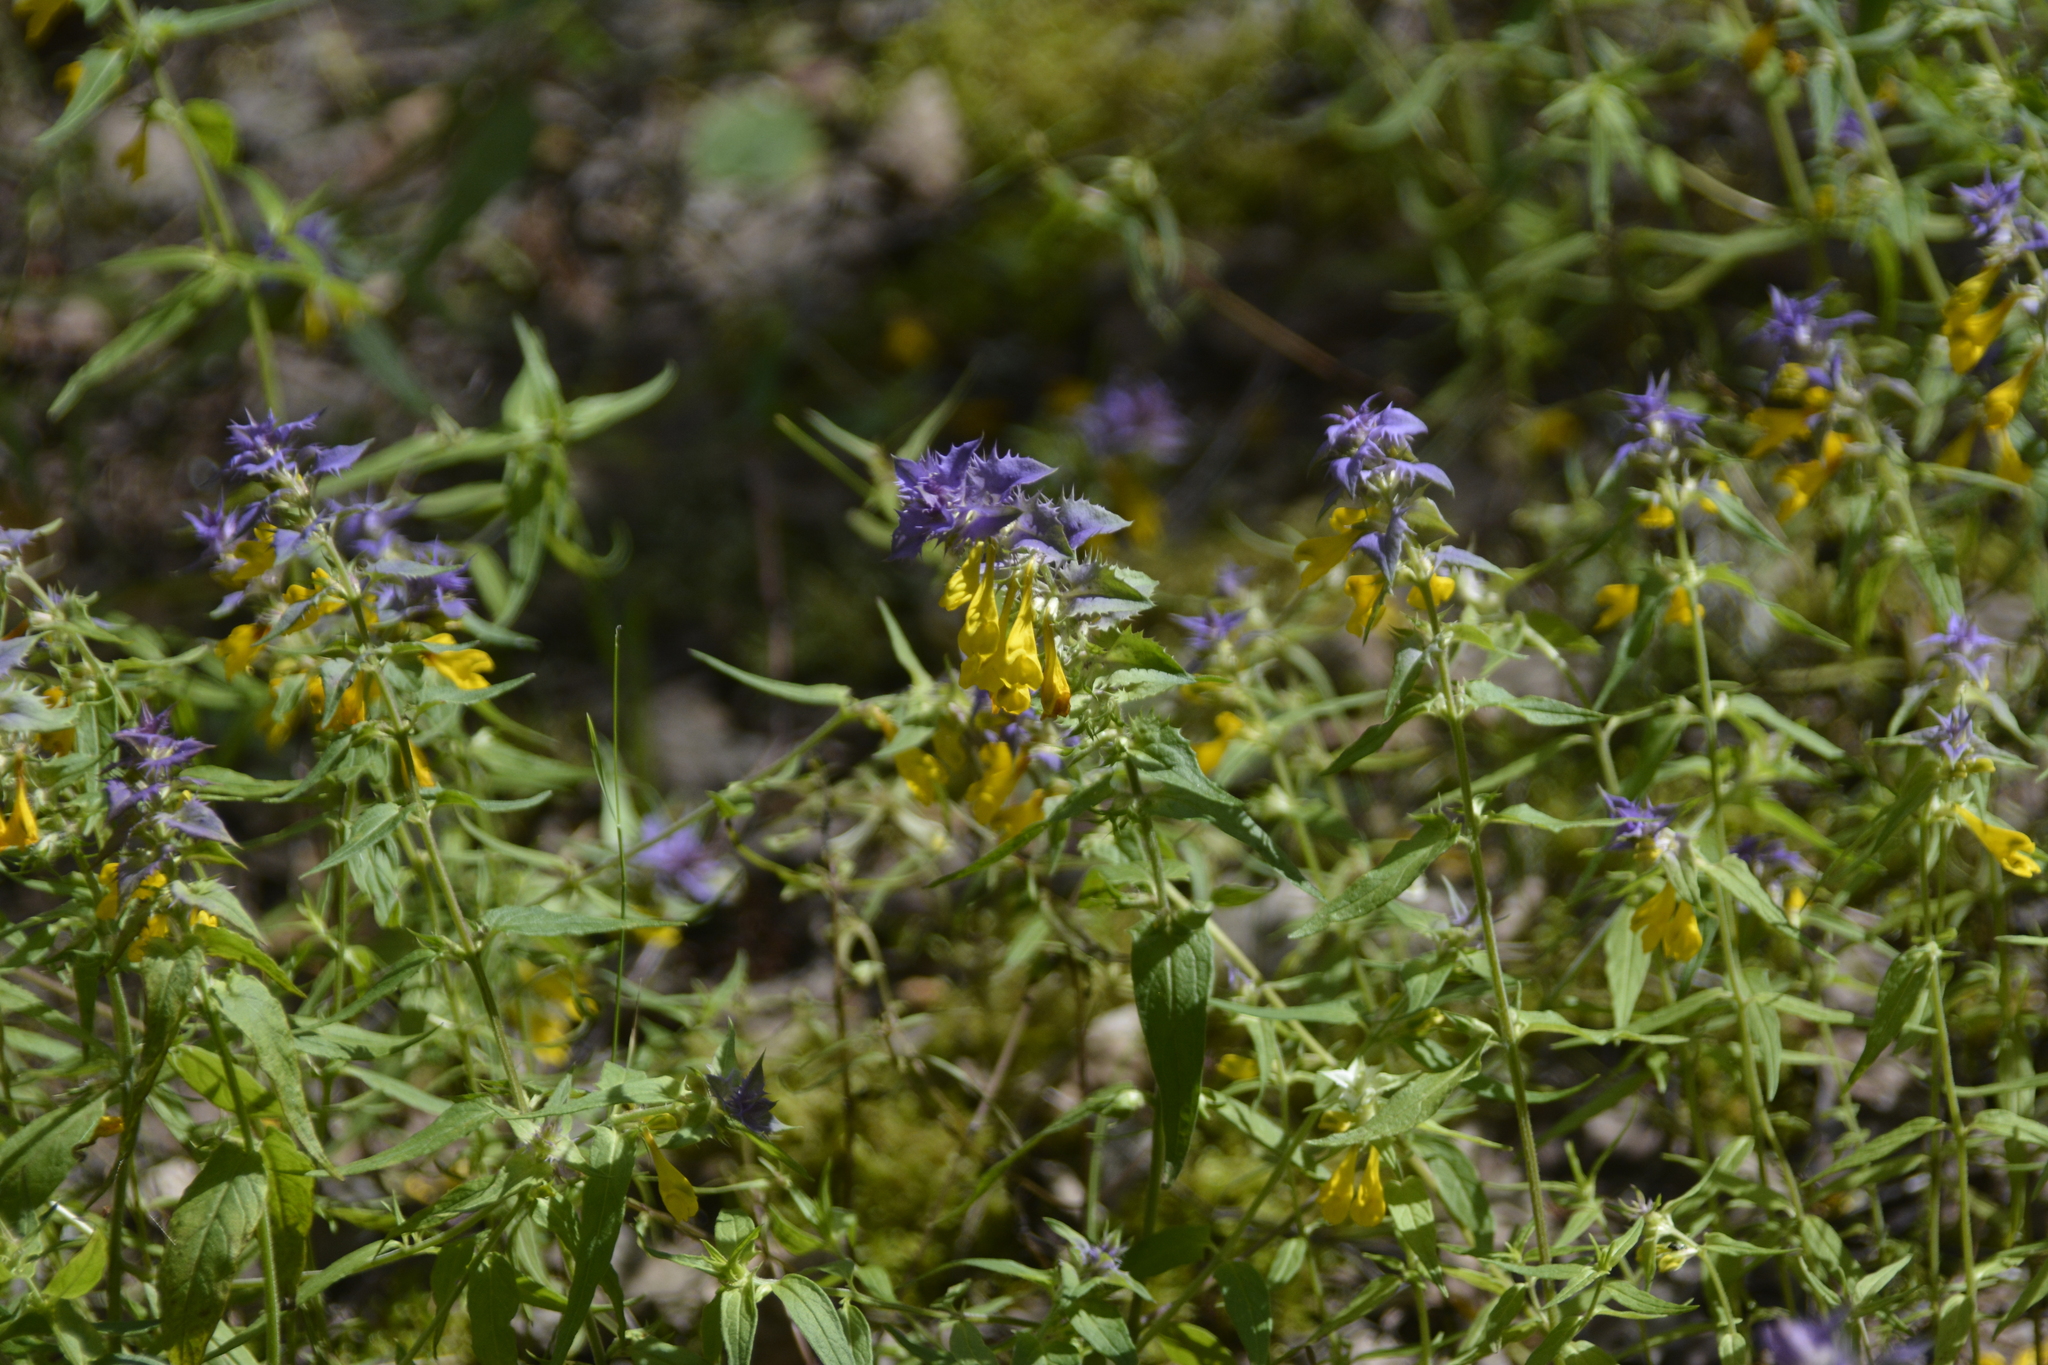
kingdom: Plantae
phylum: Tracheophyta
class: Magnoliopsida
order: Lamiales
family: Orobanchaceae
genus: Melampyrum
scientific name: Melampyrum nemorosum
